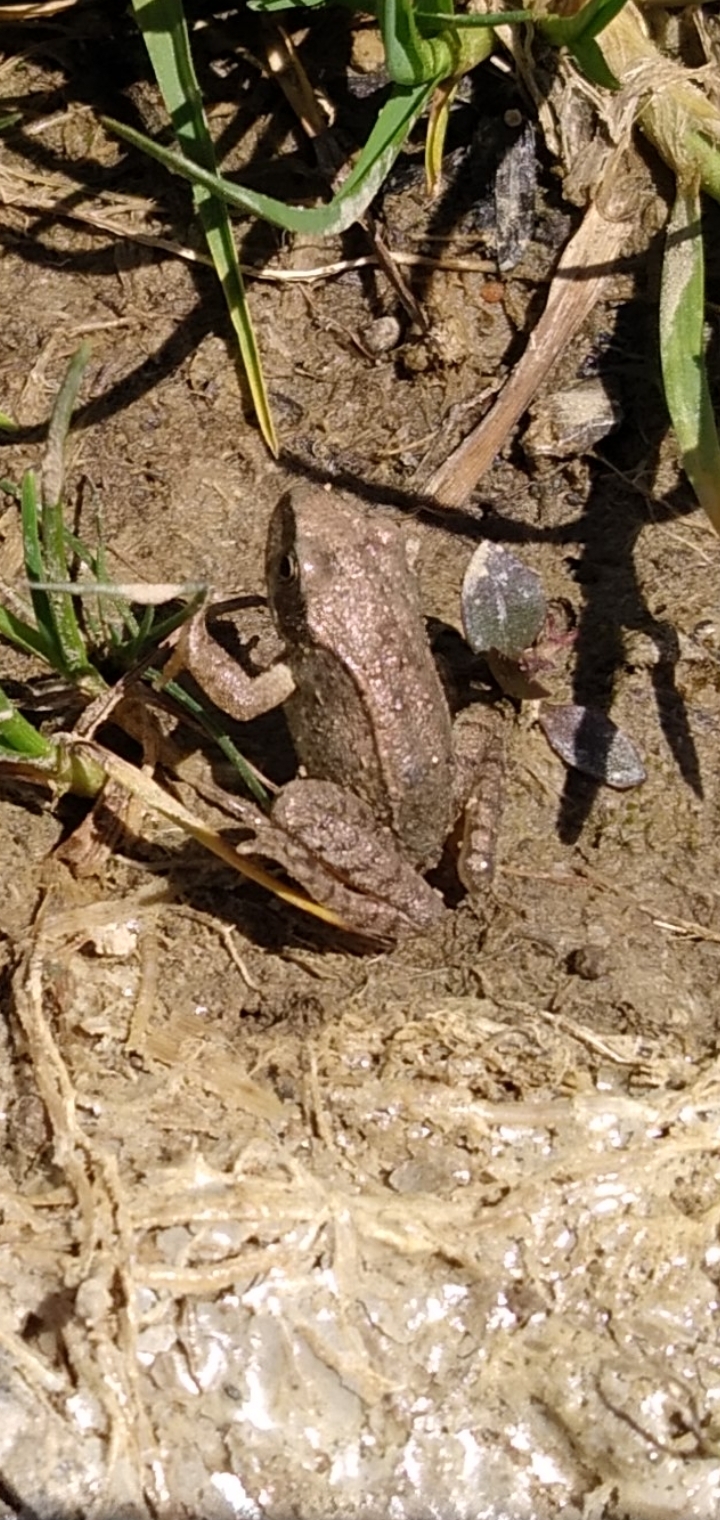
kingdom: Animalia
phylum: Chordata
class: Amphibia
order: Anura
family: Ranidae
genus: Rana
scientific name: Rana temporaria
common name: Common frog
